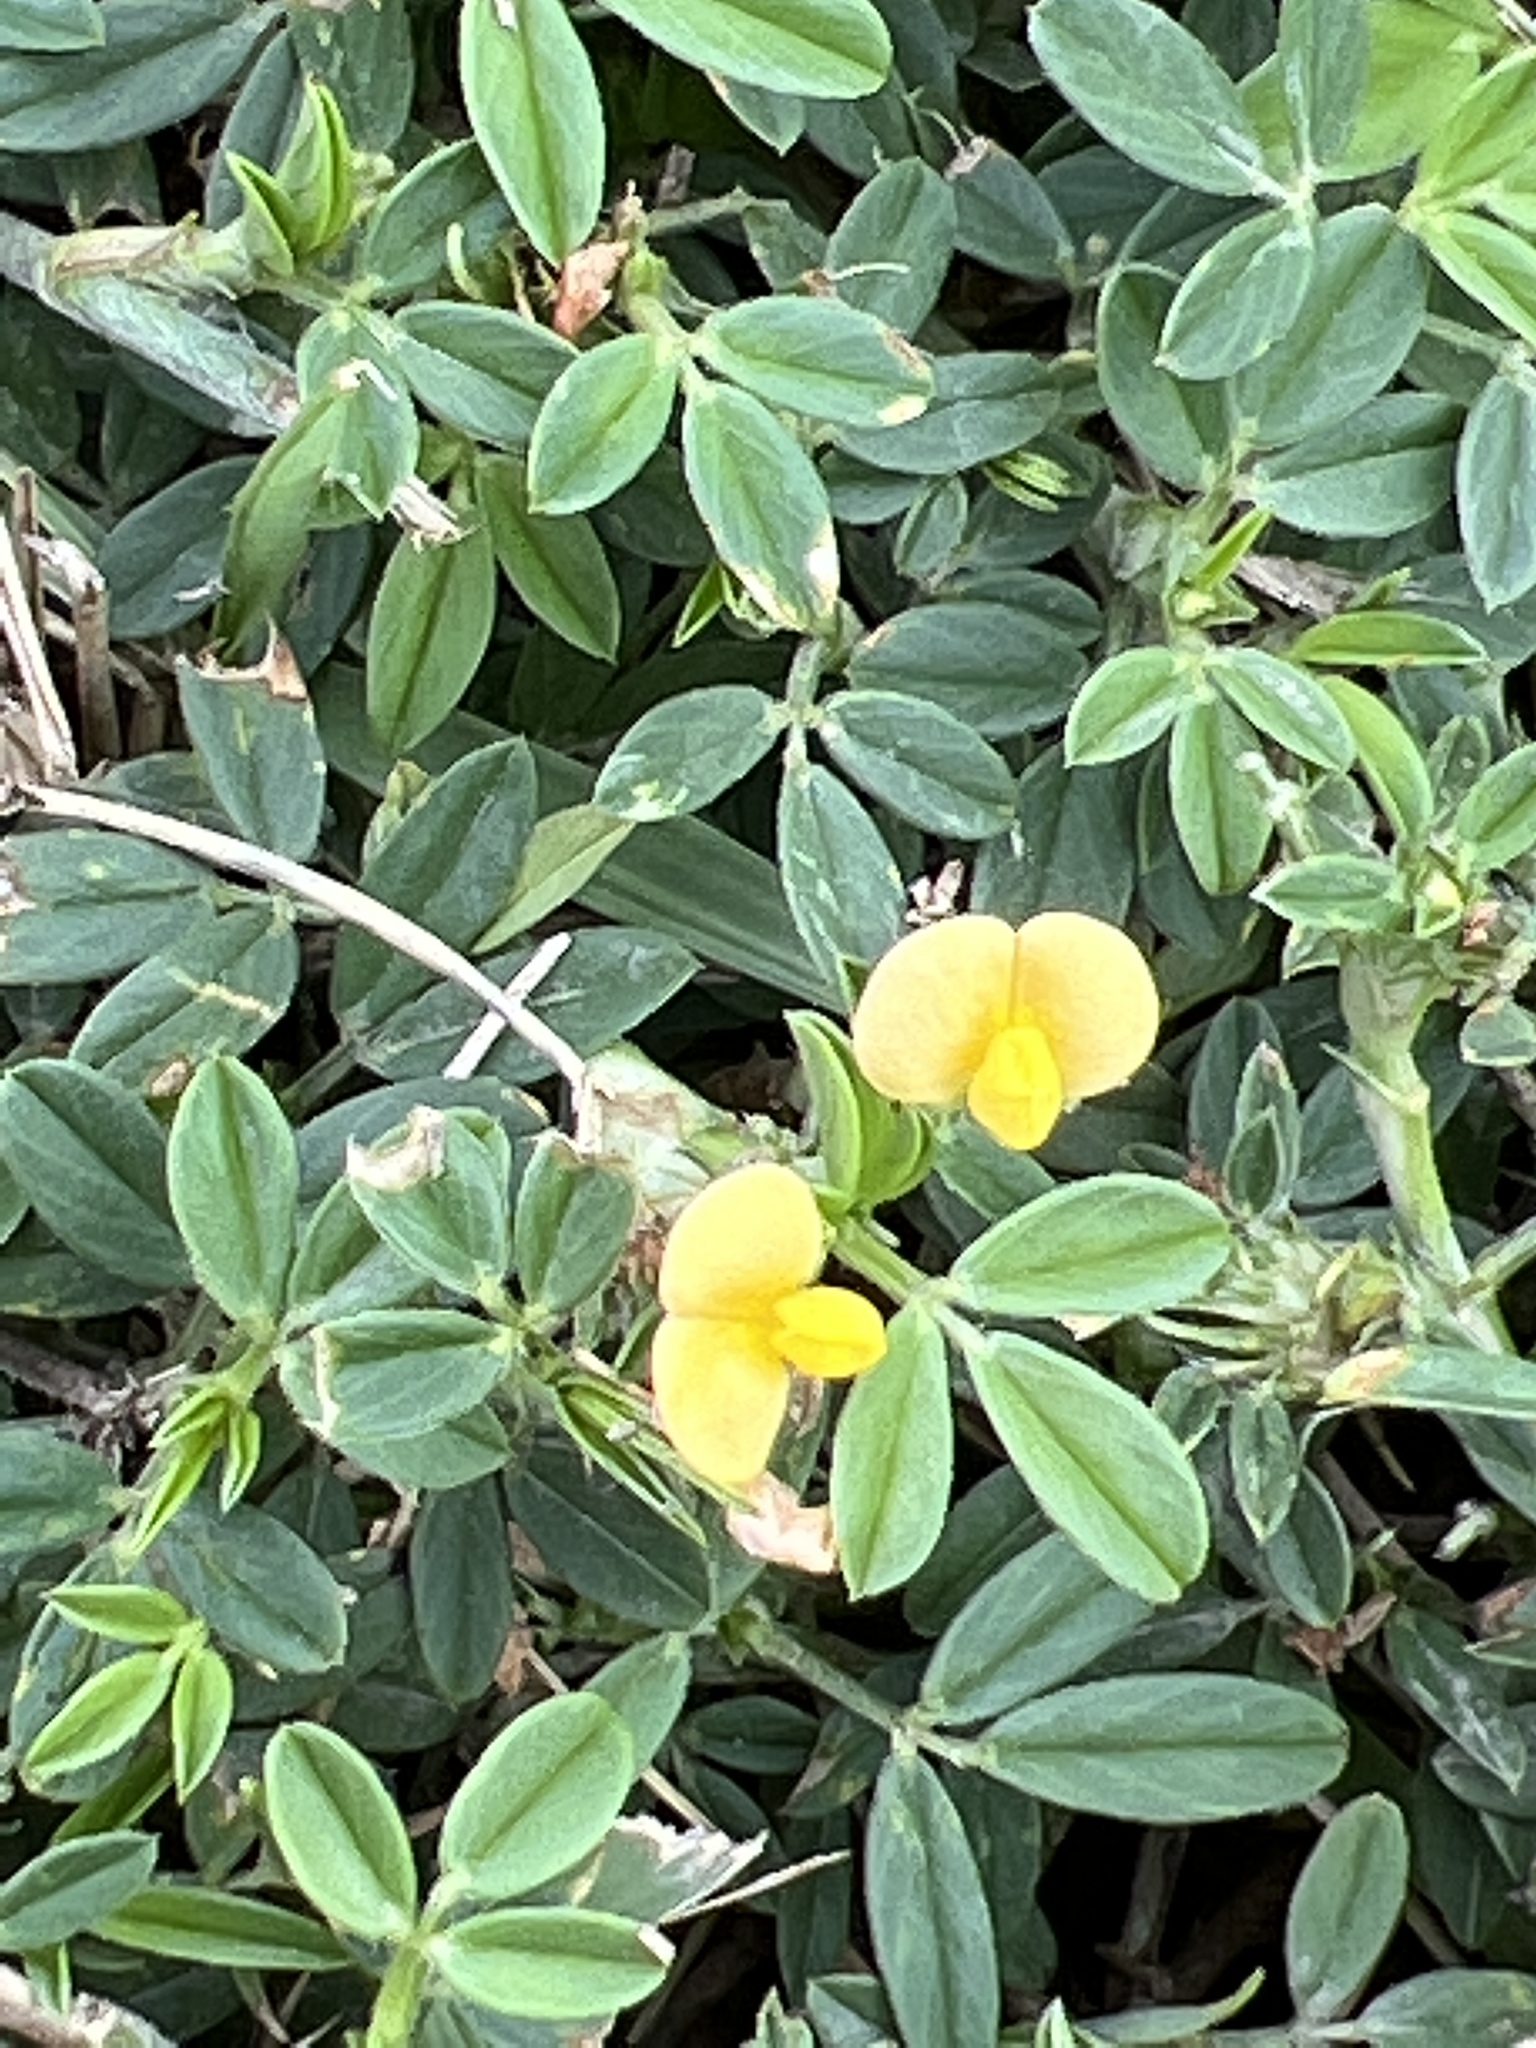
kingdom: Plantae
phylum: Tracheophyta
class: Magnoliopsida
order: Fabales
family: Fabaceae
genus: Stylosanthes
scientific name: Stylosanthes hamata
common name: Cheesytoes
